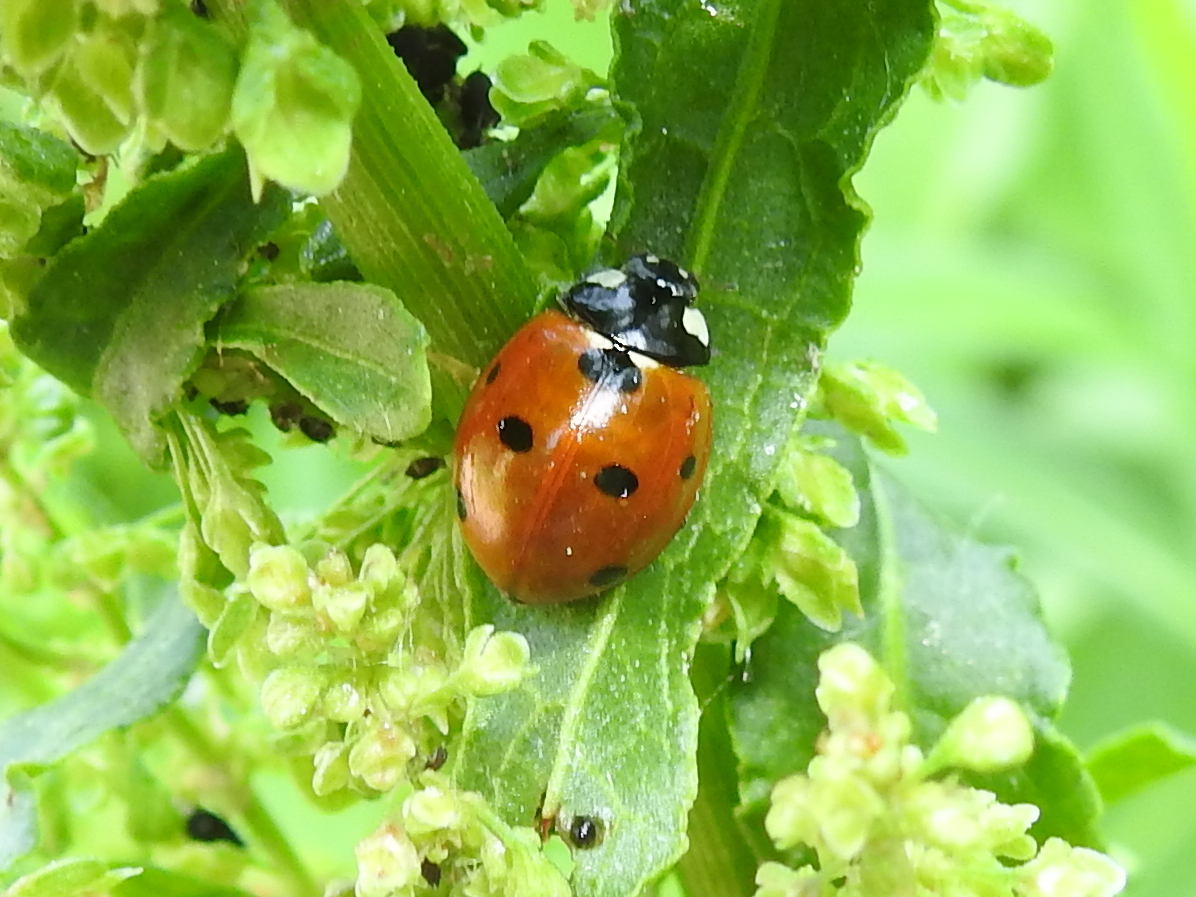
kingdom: Animalia
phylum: Arthropoda
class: Insecta
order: Coleoptera
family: Coccinellidae
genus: Coccinella
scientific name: Coccinella septempunctata
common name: Sevenspotted lady beetle
